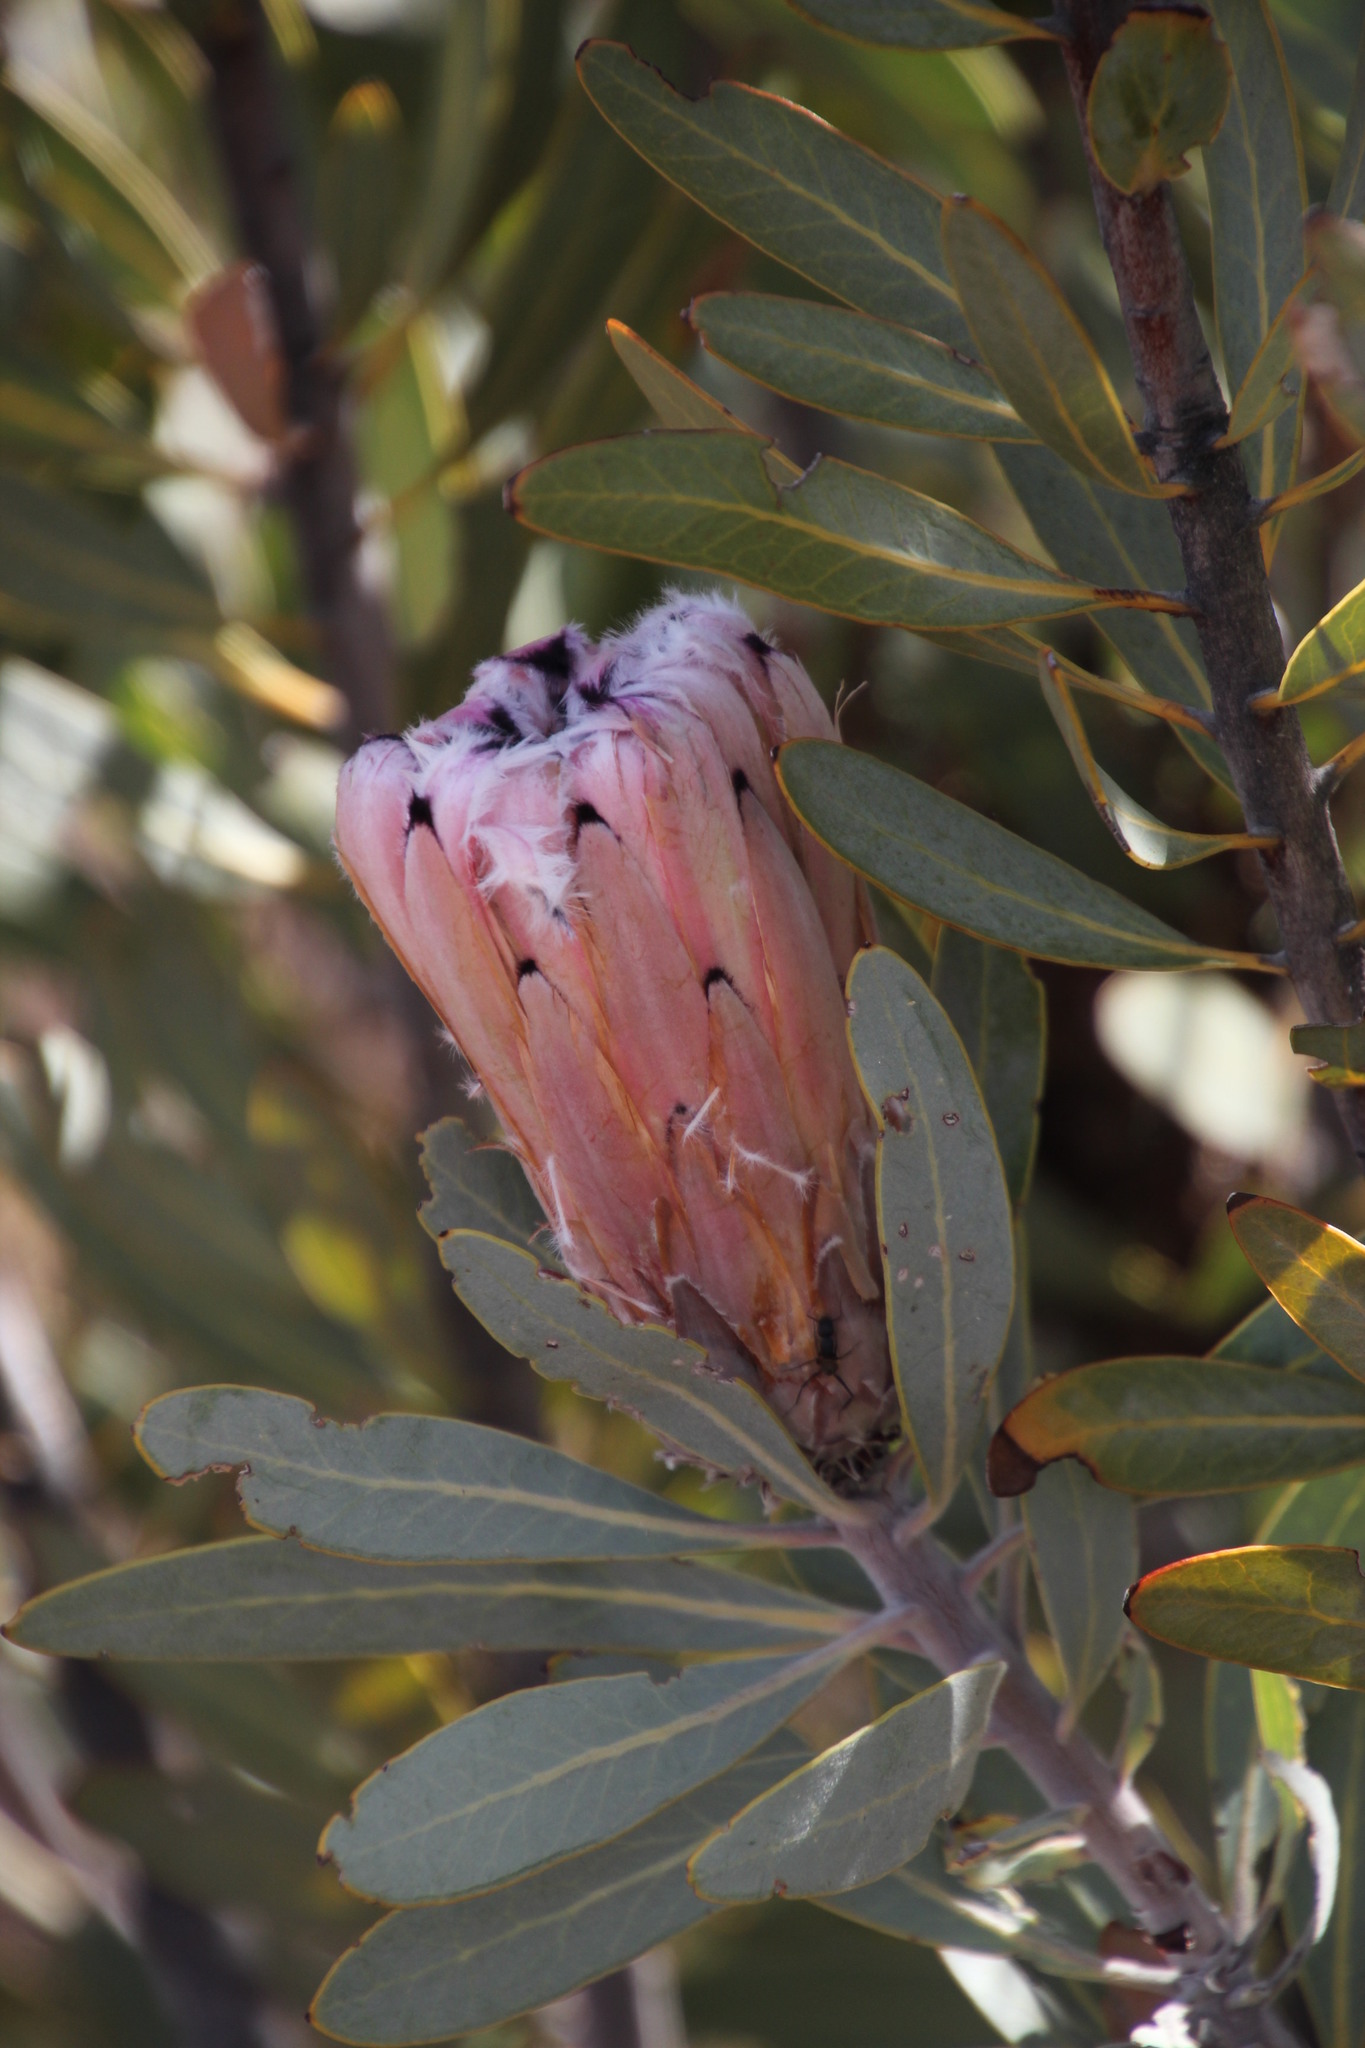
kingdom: Plantae
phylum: Tracheophyta
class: Magnoliopsida
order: Proteales
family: Proteaceae
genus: Protea
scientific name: Protea laurifolia
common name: Grey-leaf sugarbsh
